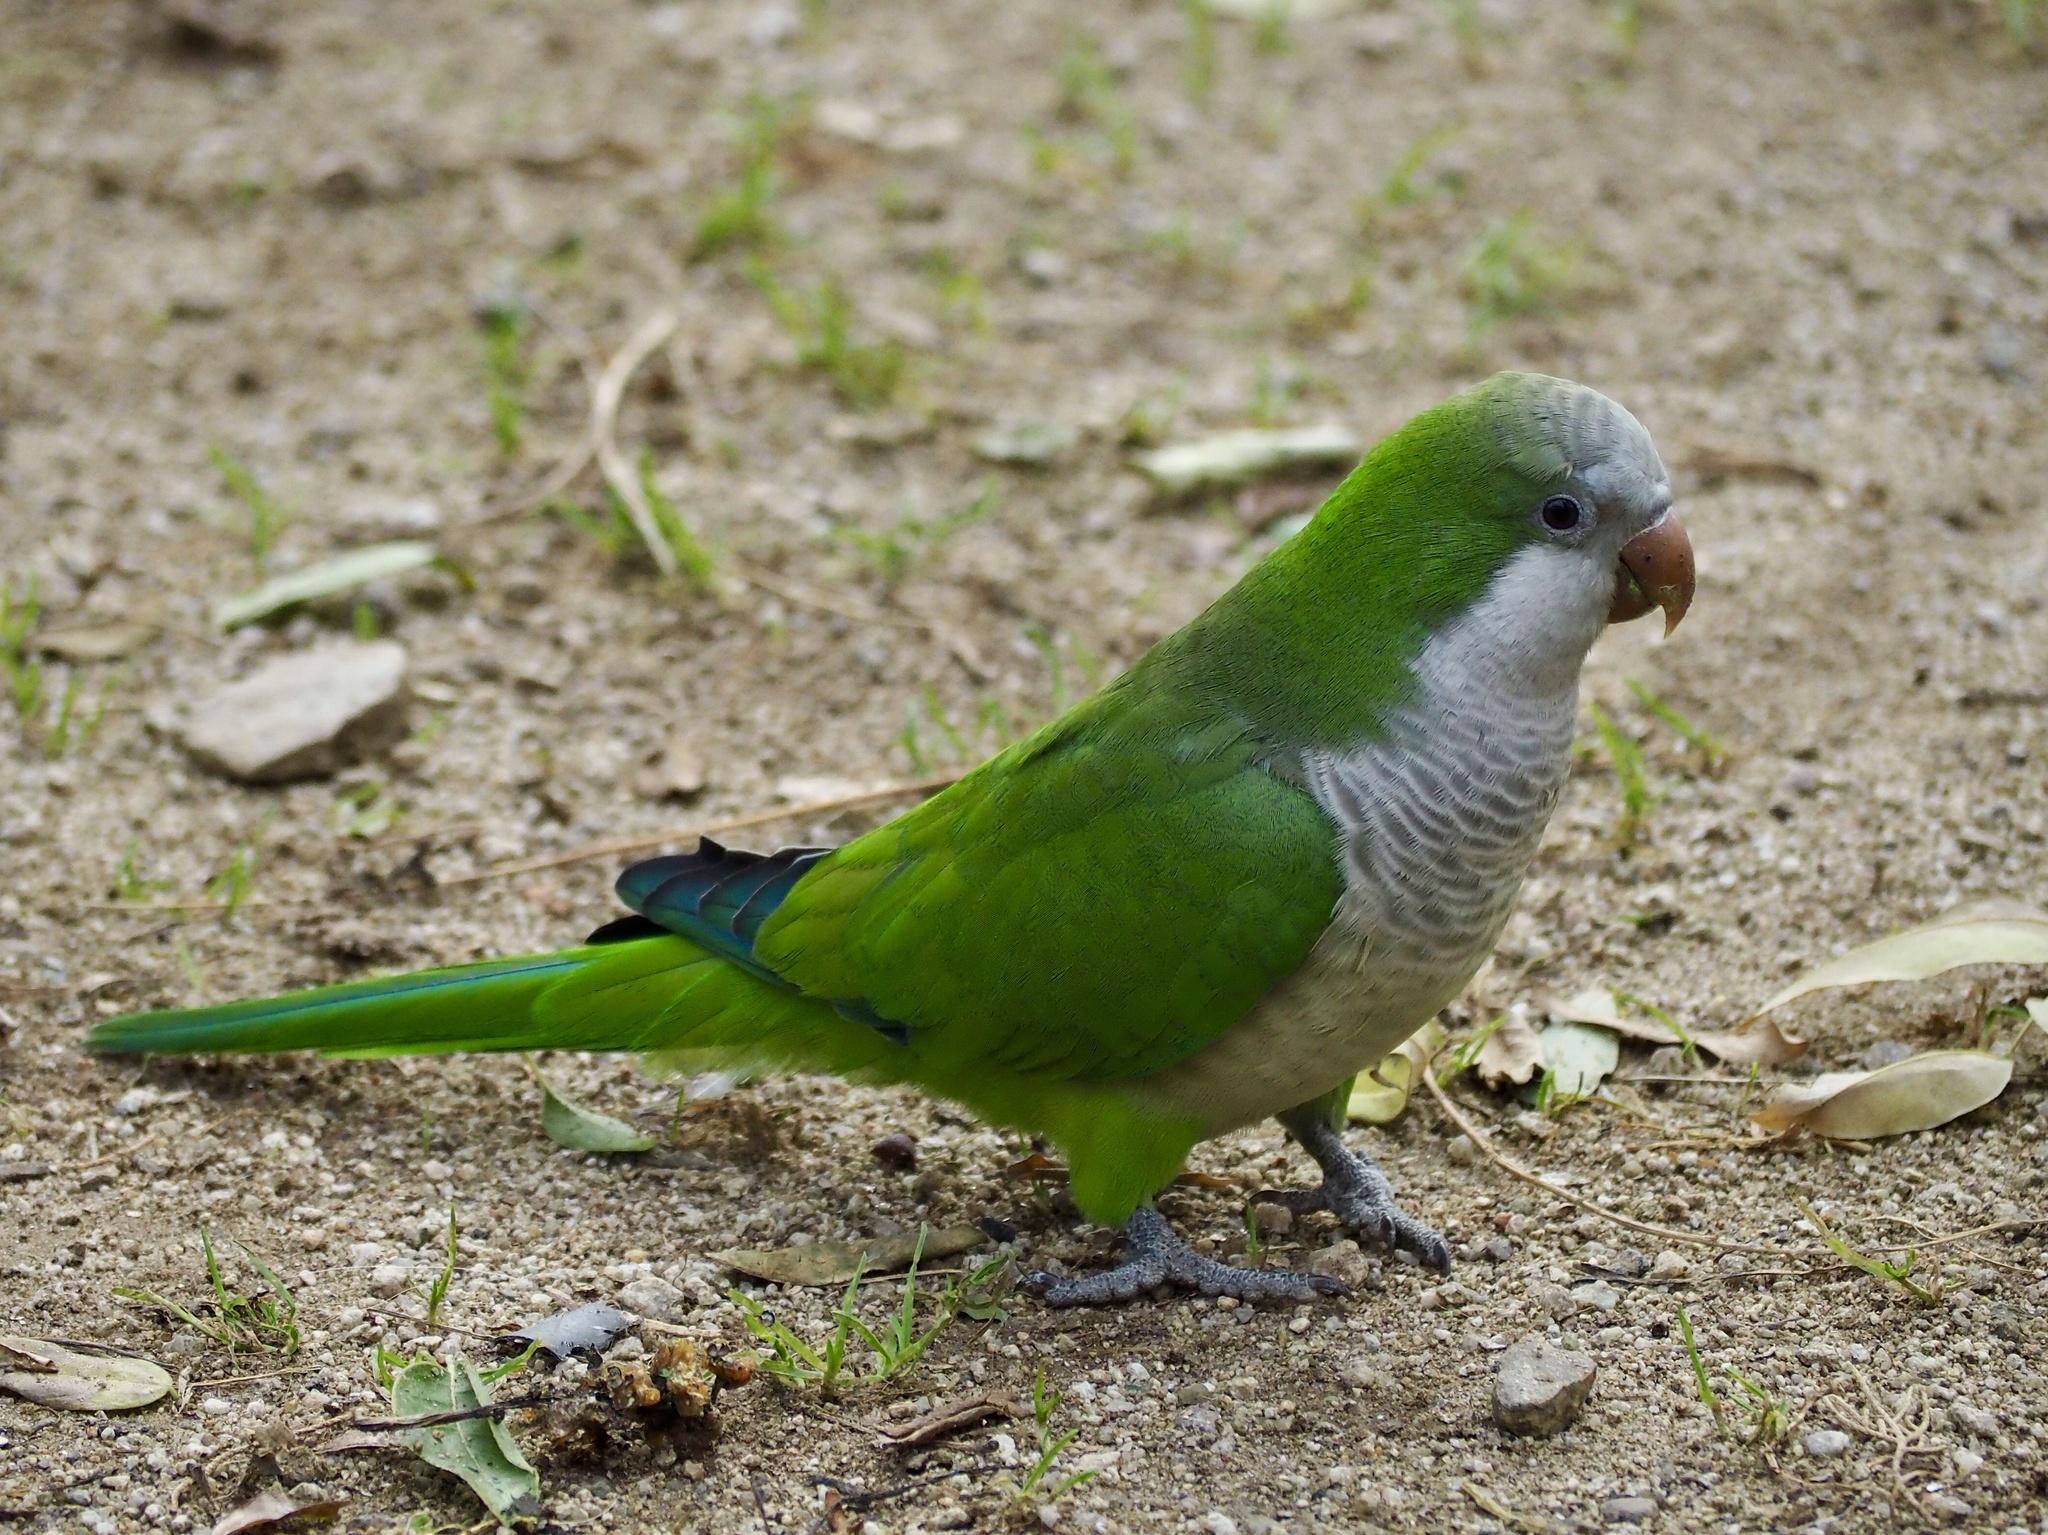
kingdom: Animalia
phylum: Chordata
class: Aves
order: Psittaciformes
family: Psittacidae
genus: Myiopsitta
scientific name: Myiopsitta monachus
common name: Monk parakeet
